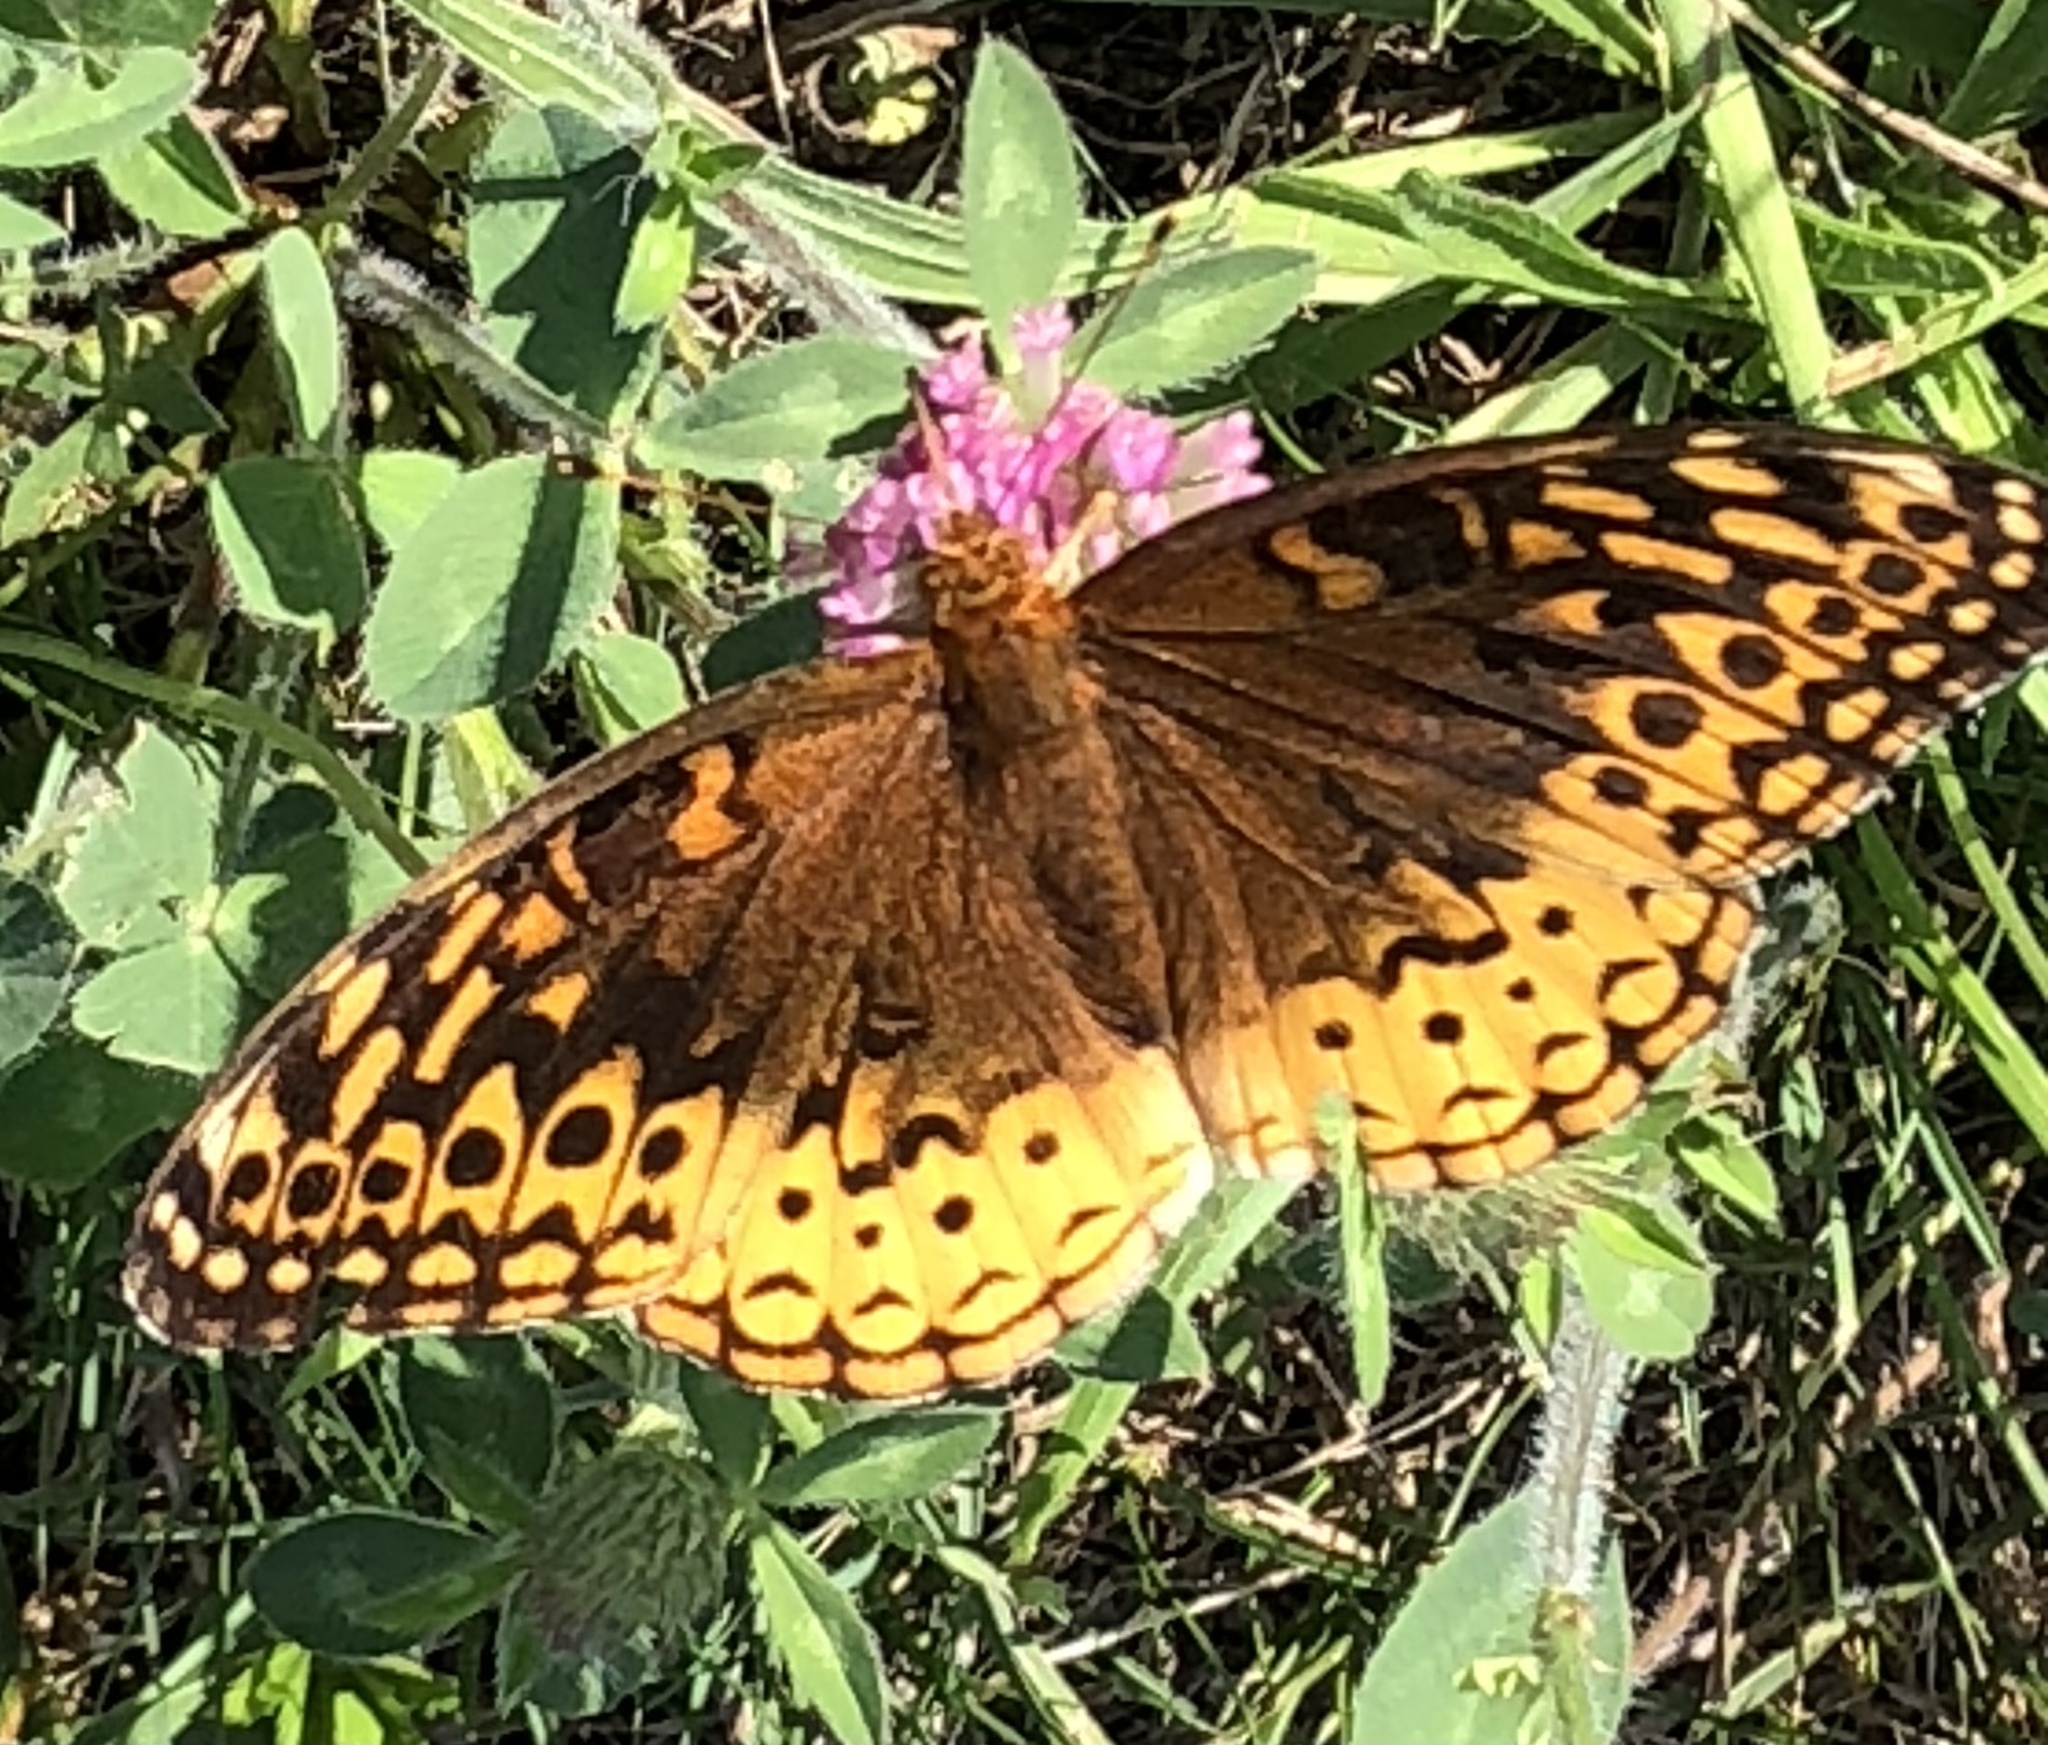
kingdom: Animalia
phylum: Arthropoda
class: Insecta
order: Lepidoptera
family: Nymphalidae
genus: Speyeria
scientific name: Speyeria cybele
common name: Great spangled fritillary
